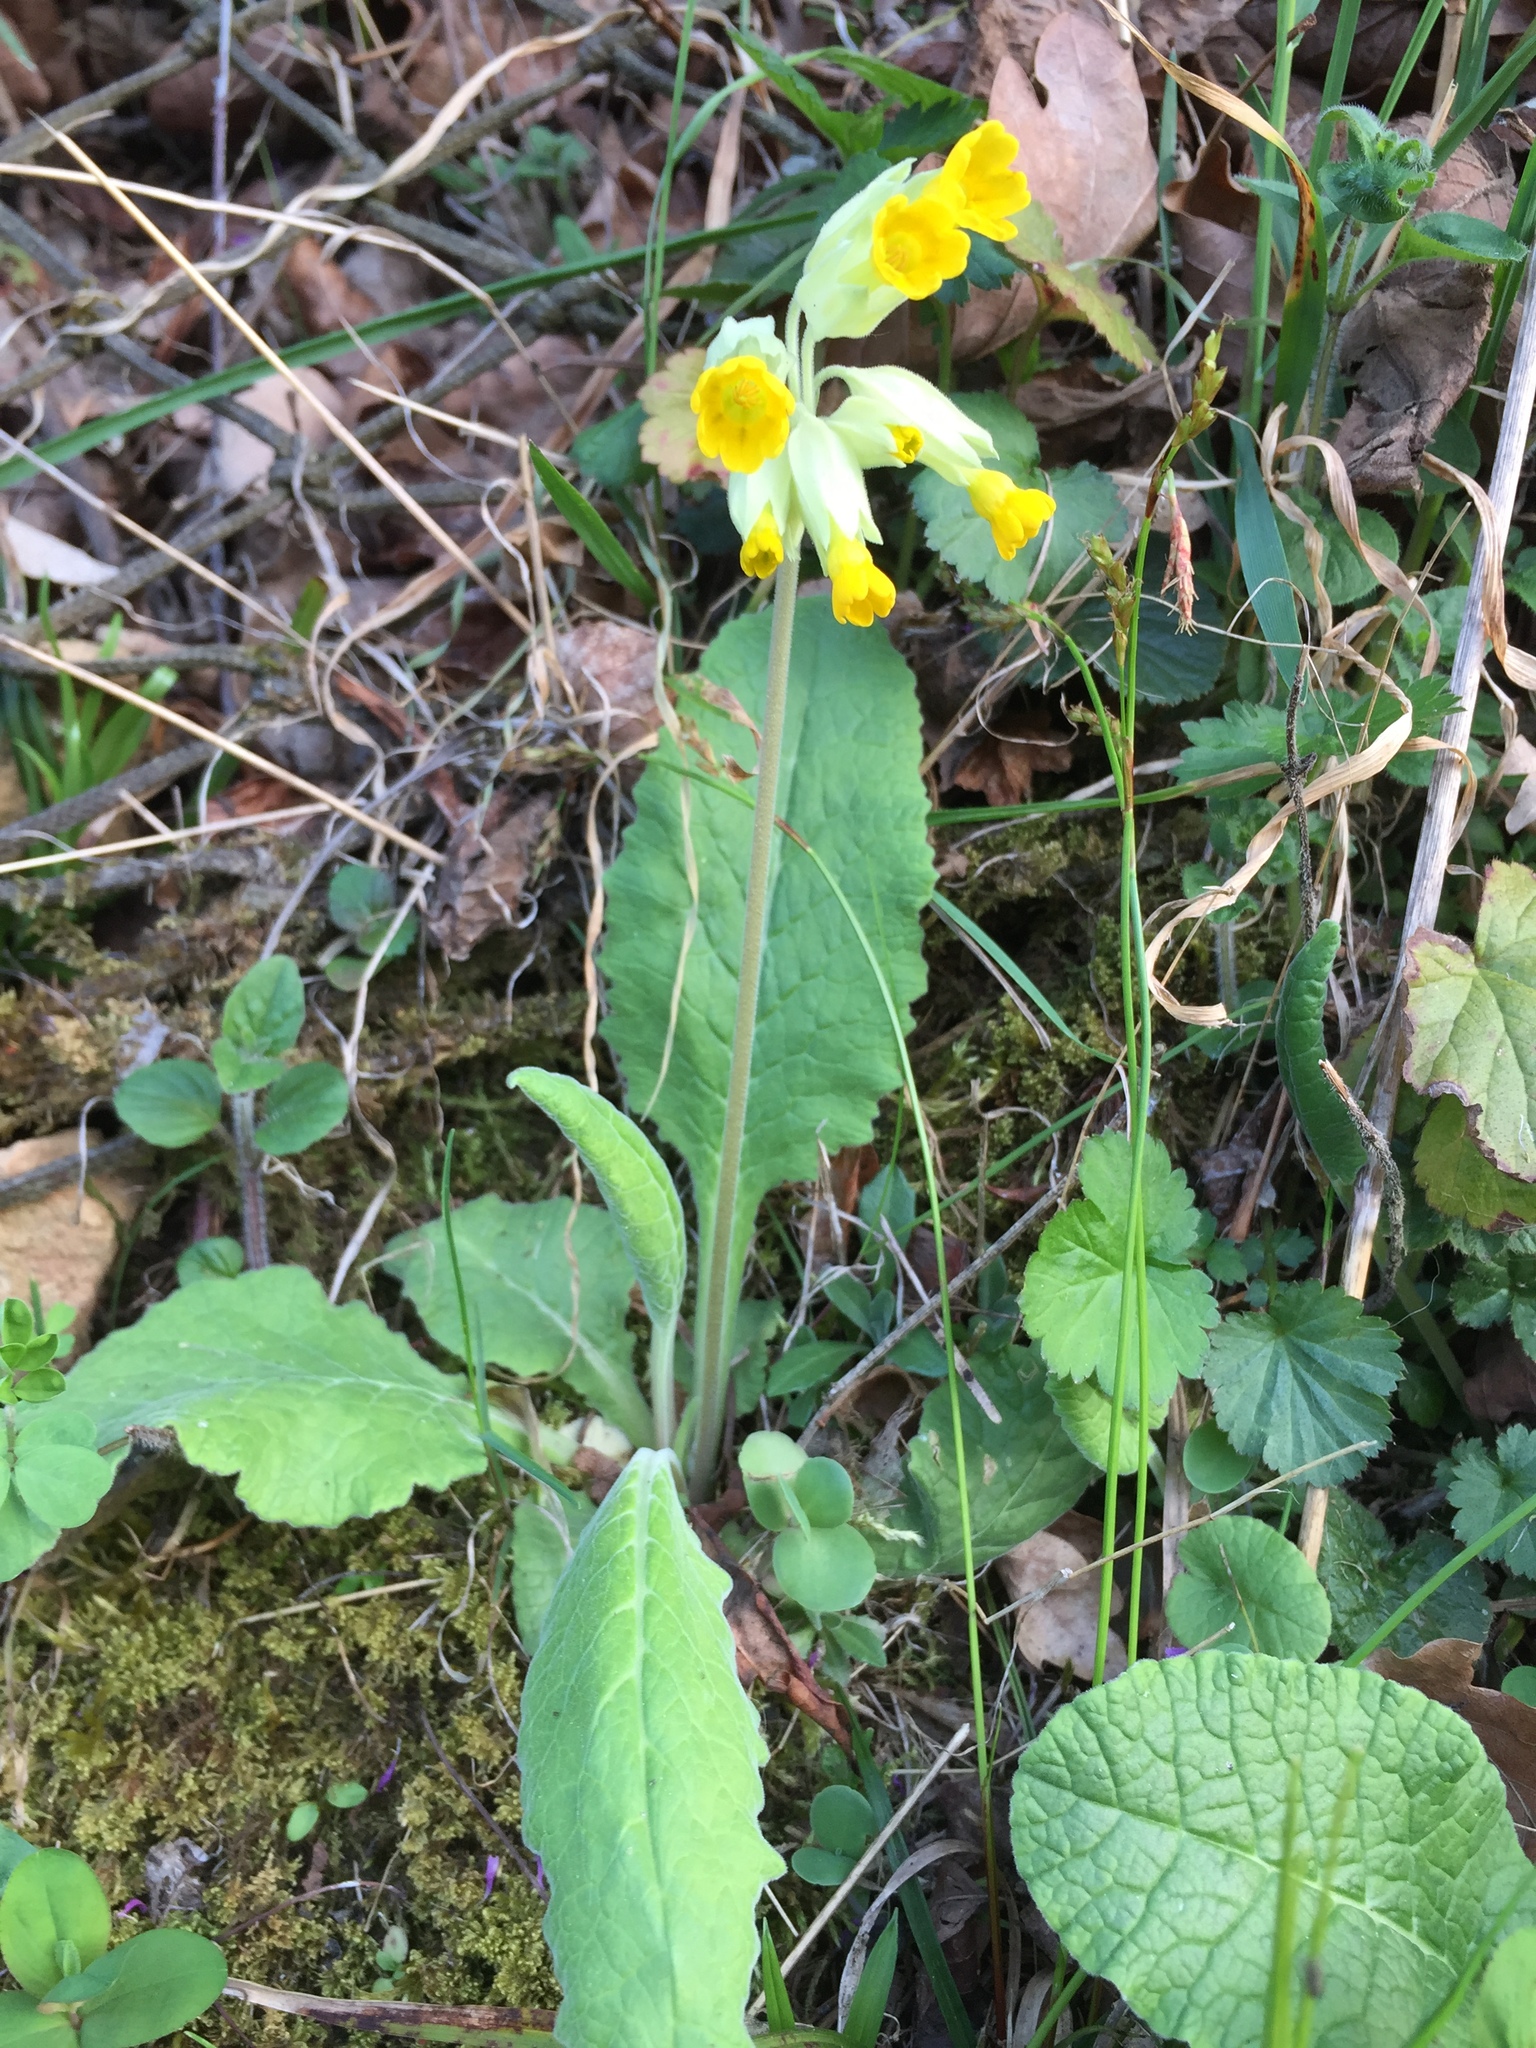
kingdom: Plantae
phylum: Tracheophyta
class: Magnoliopsida
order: Ericales
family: Primulaceae
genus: Primula
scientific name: Primula veris
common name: Cowslip
